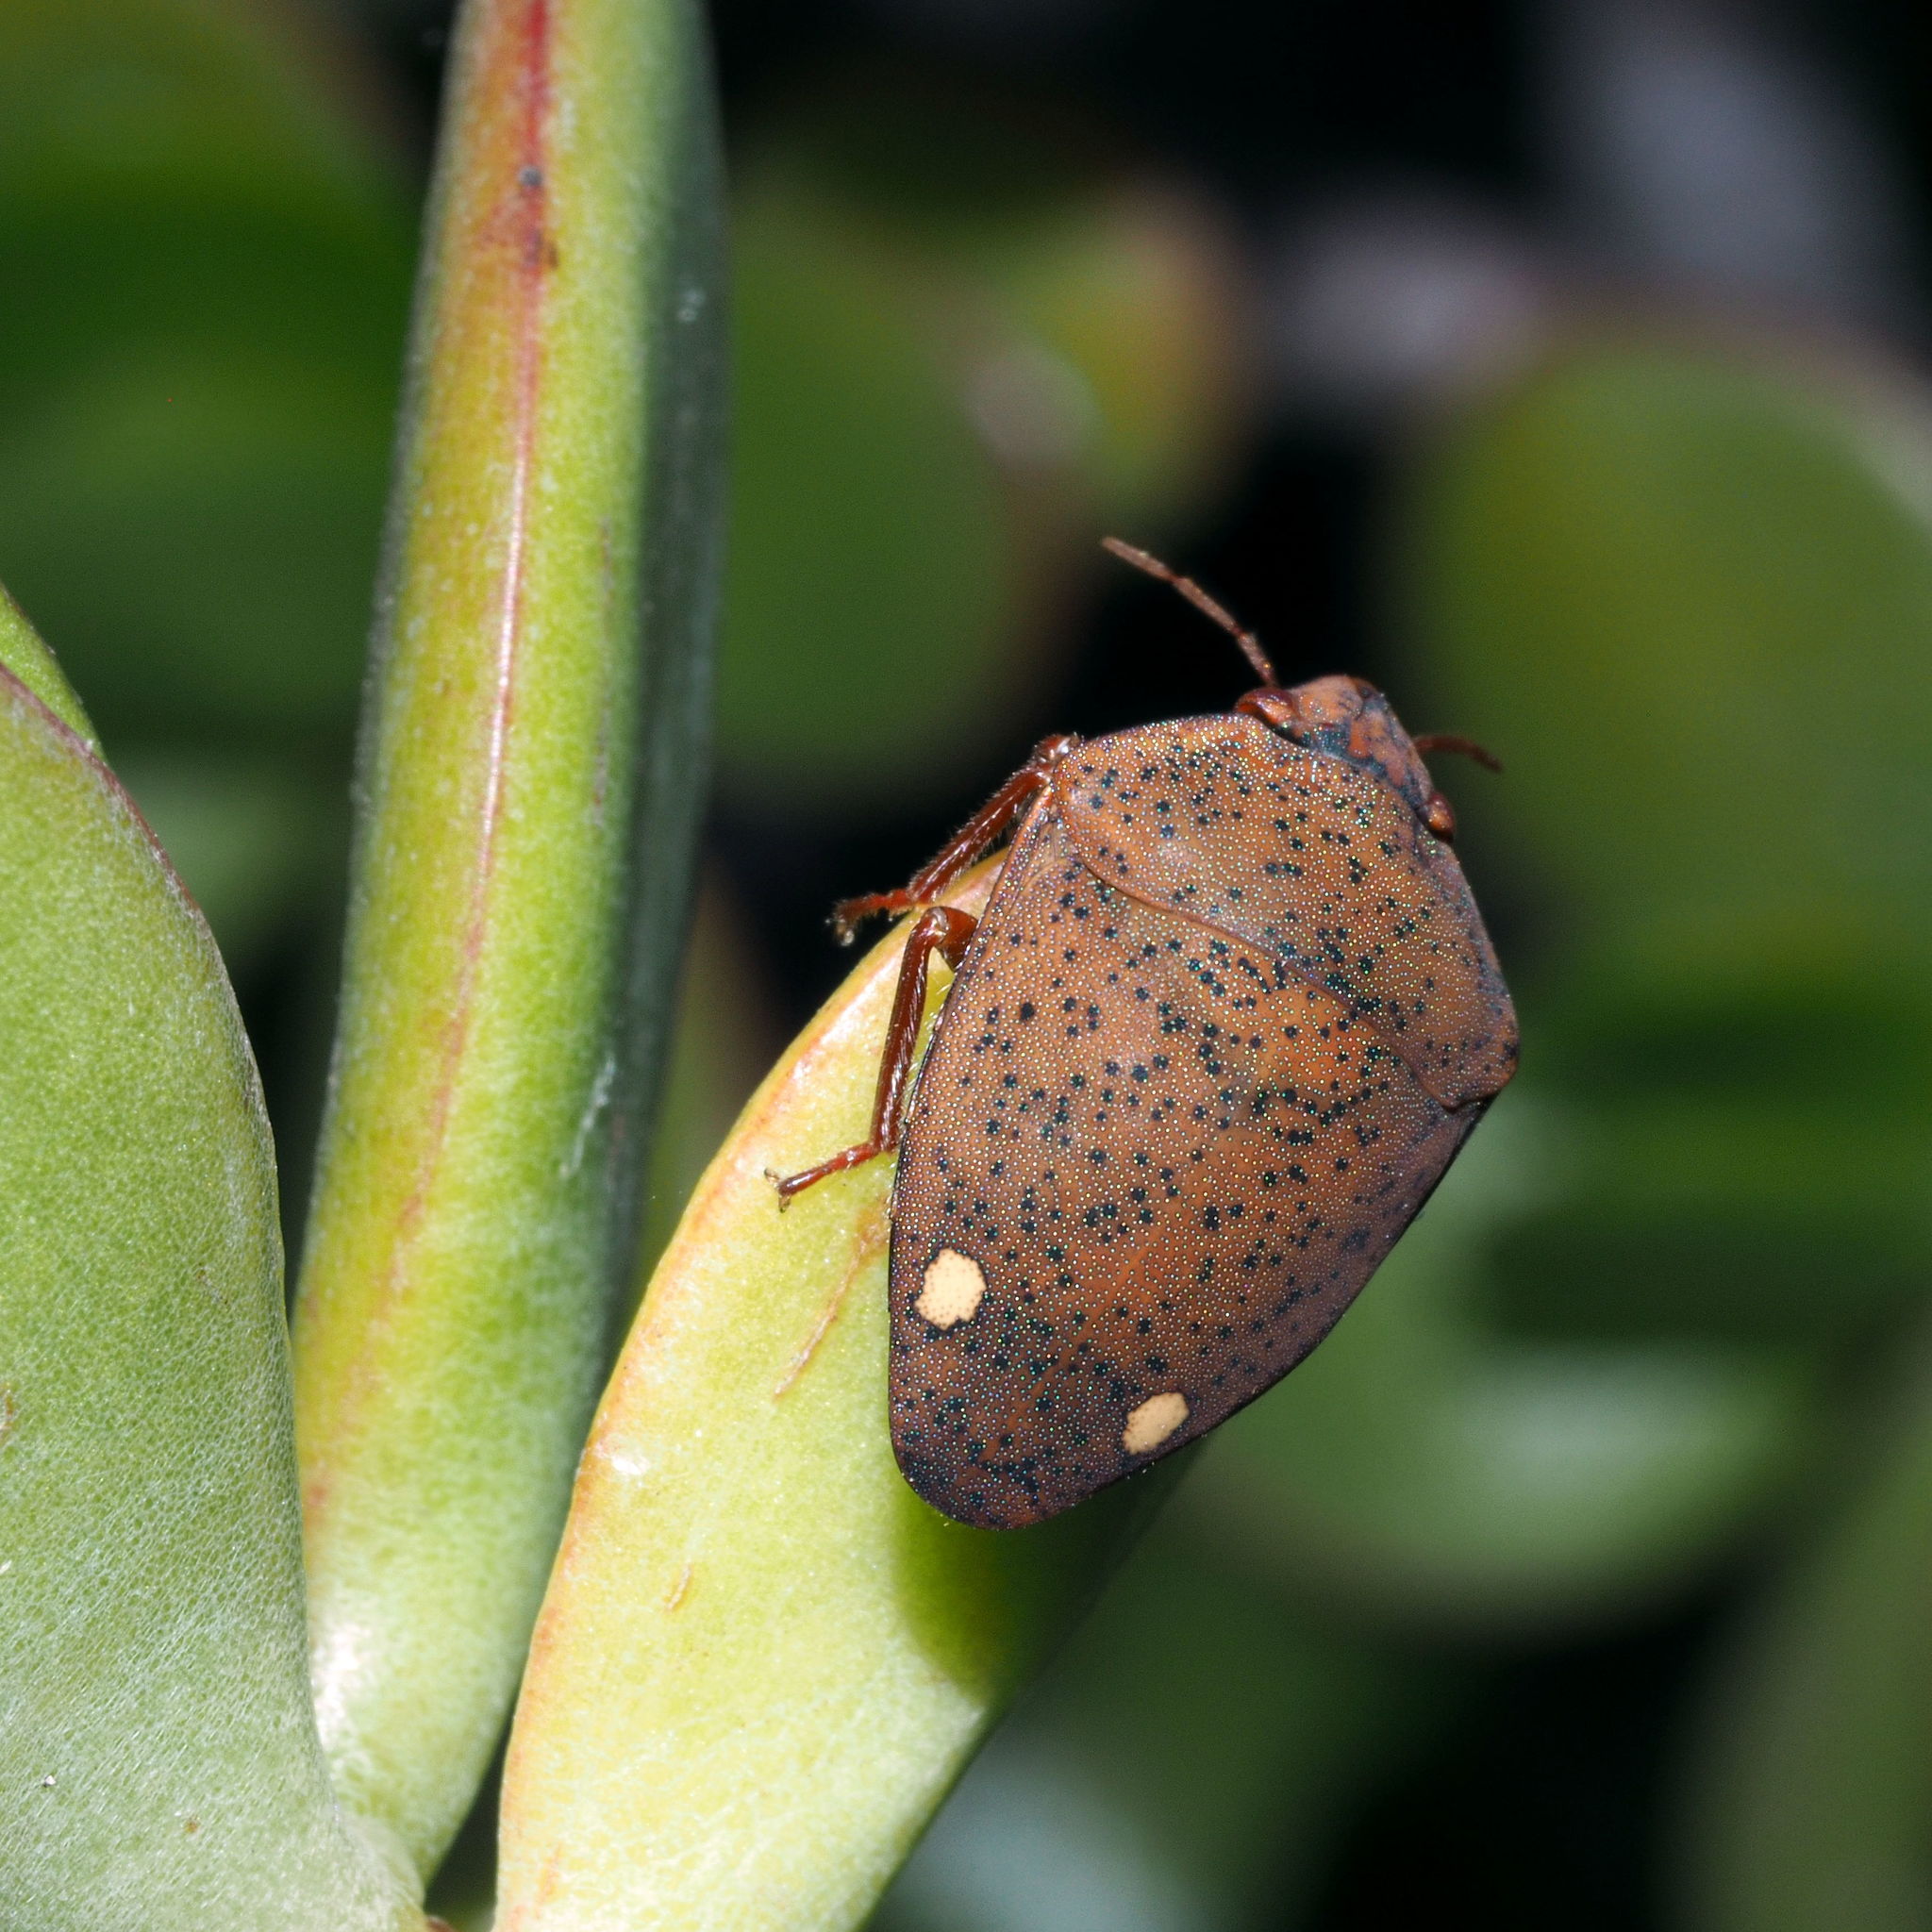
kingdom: Animalia
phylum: Arthropoda
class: Insecta
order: Hemiptera
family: Scutelleridae
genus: Solenosthedium
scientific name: Solenosthedium bilunatum
